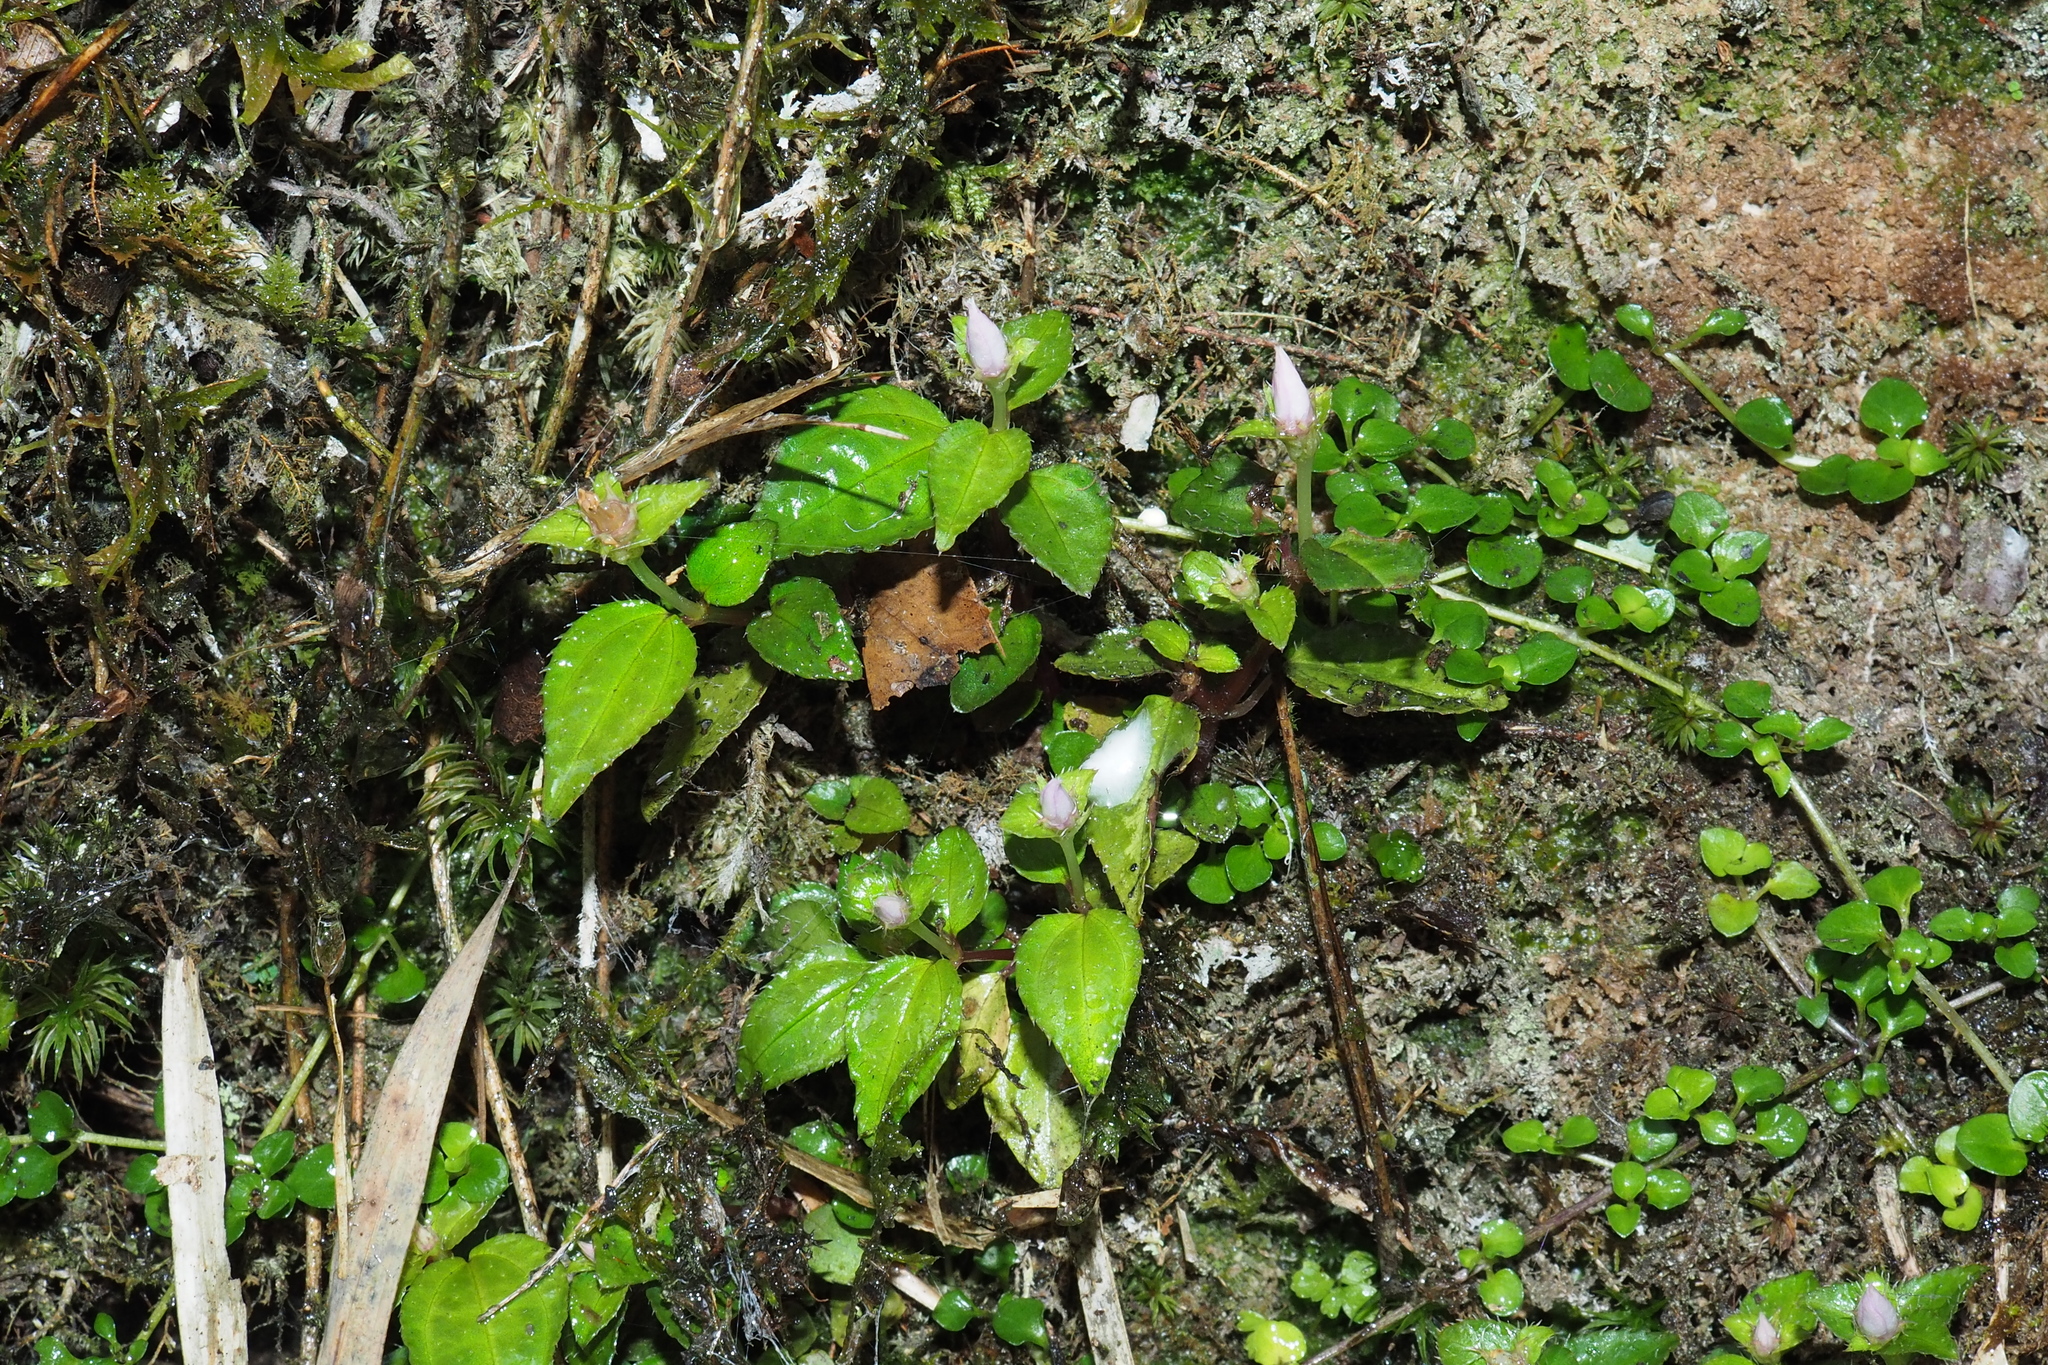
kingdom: Plantae
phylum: Tracheophyta
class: Magnoliopsida
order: Myrtales
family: Melastomataceae
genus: Sarcopyramis
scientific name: Sarcopyramis bodinieri
